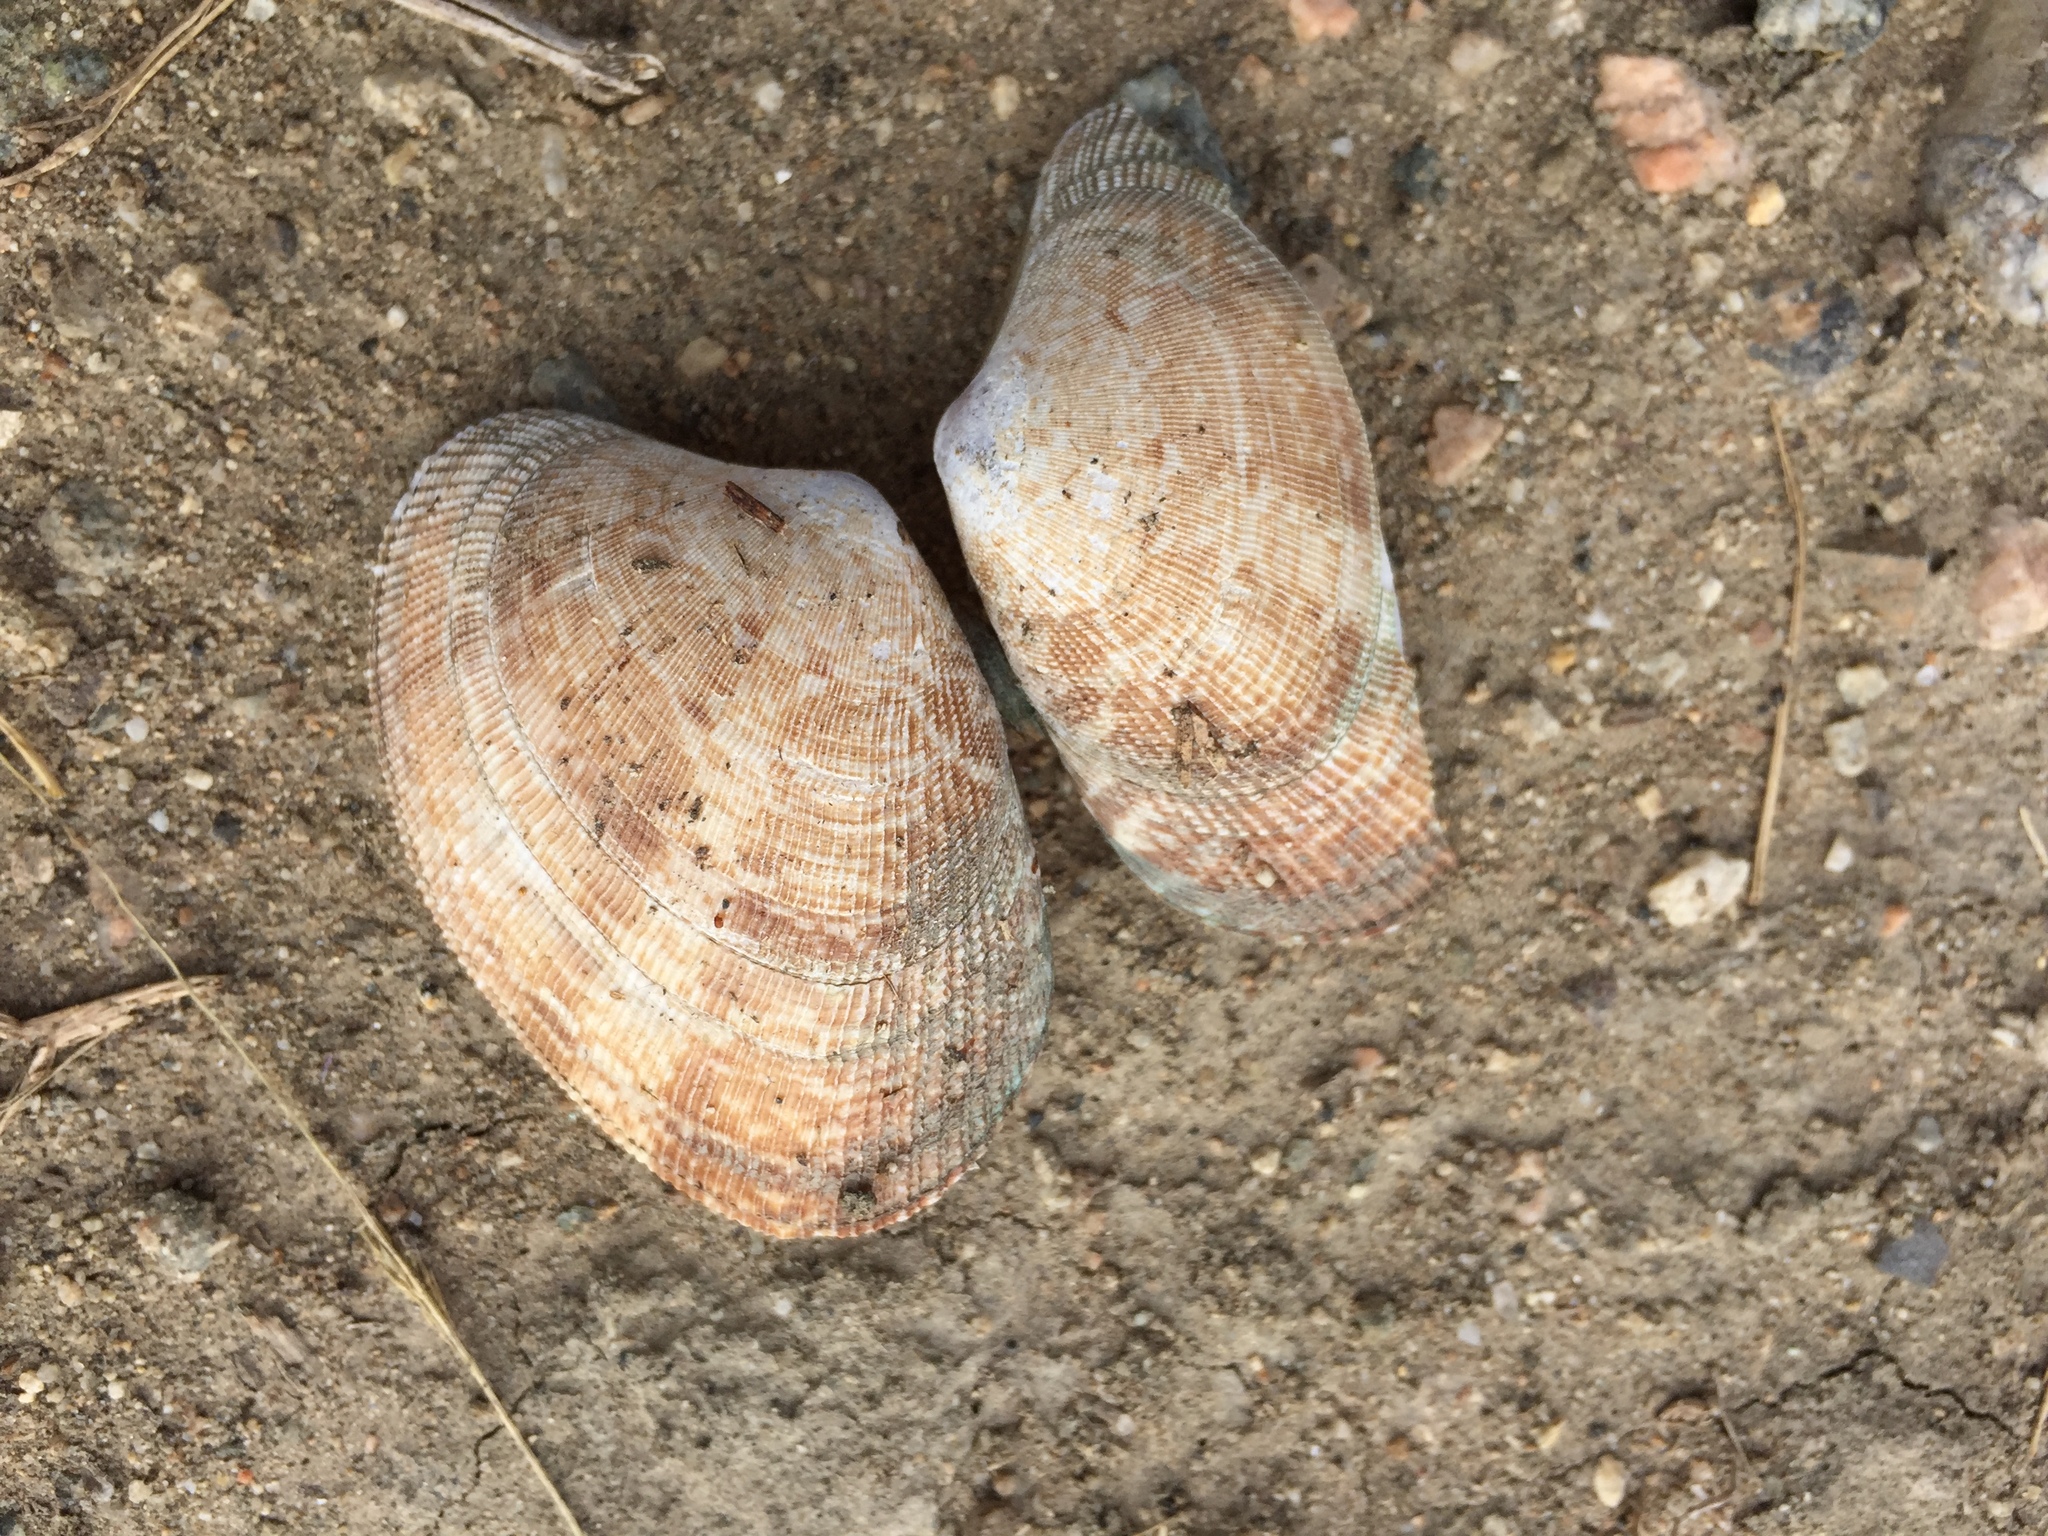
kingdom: Animalia
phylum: Mollusca
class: Bivalvia
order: Venerida
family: Veneridae
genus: Ruditapes
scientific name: Ruditapes philippinarum
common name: Manila clam
